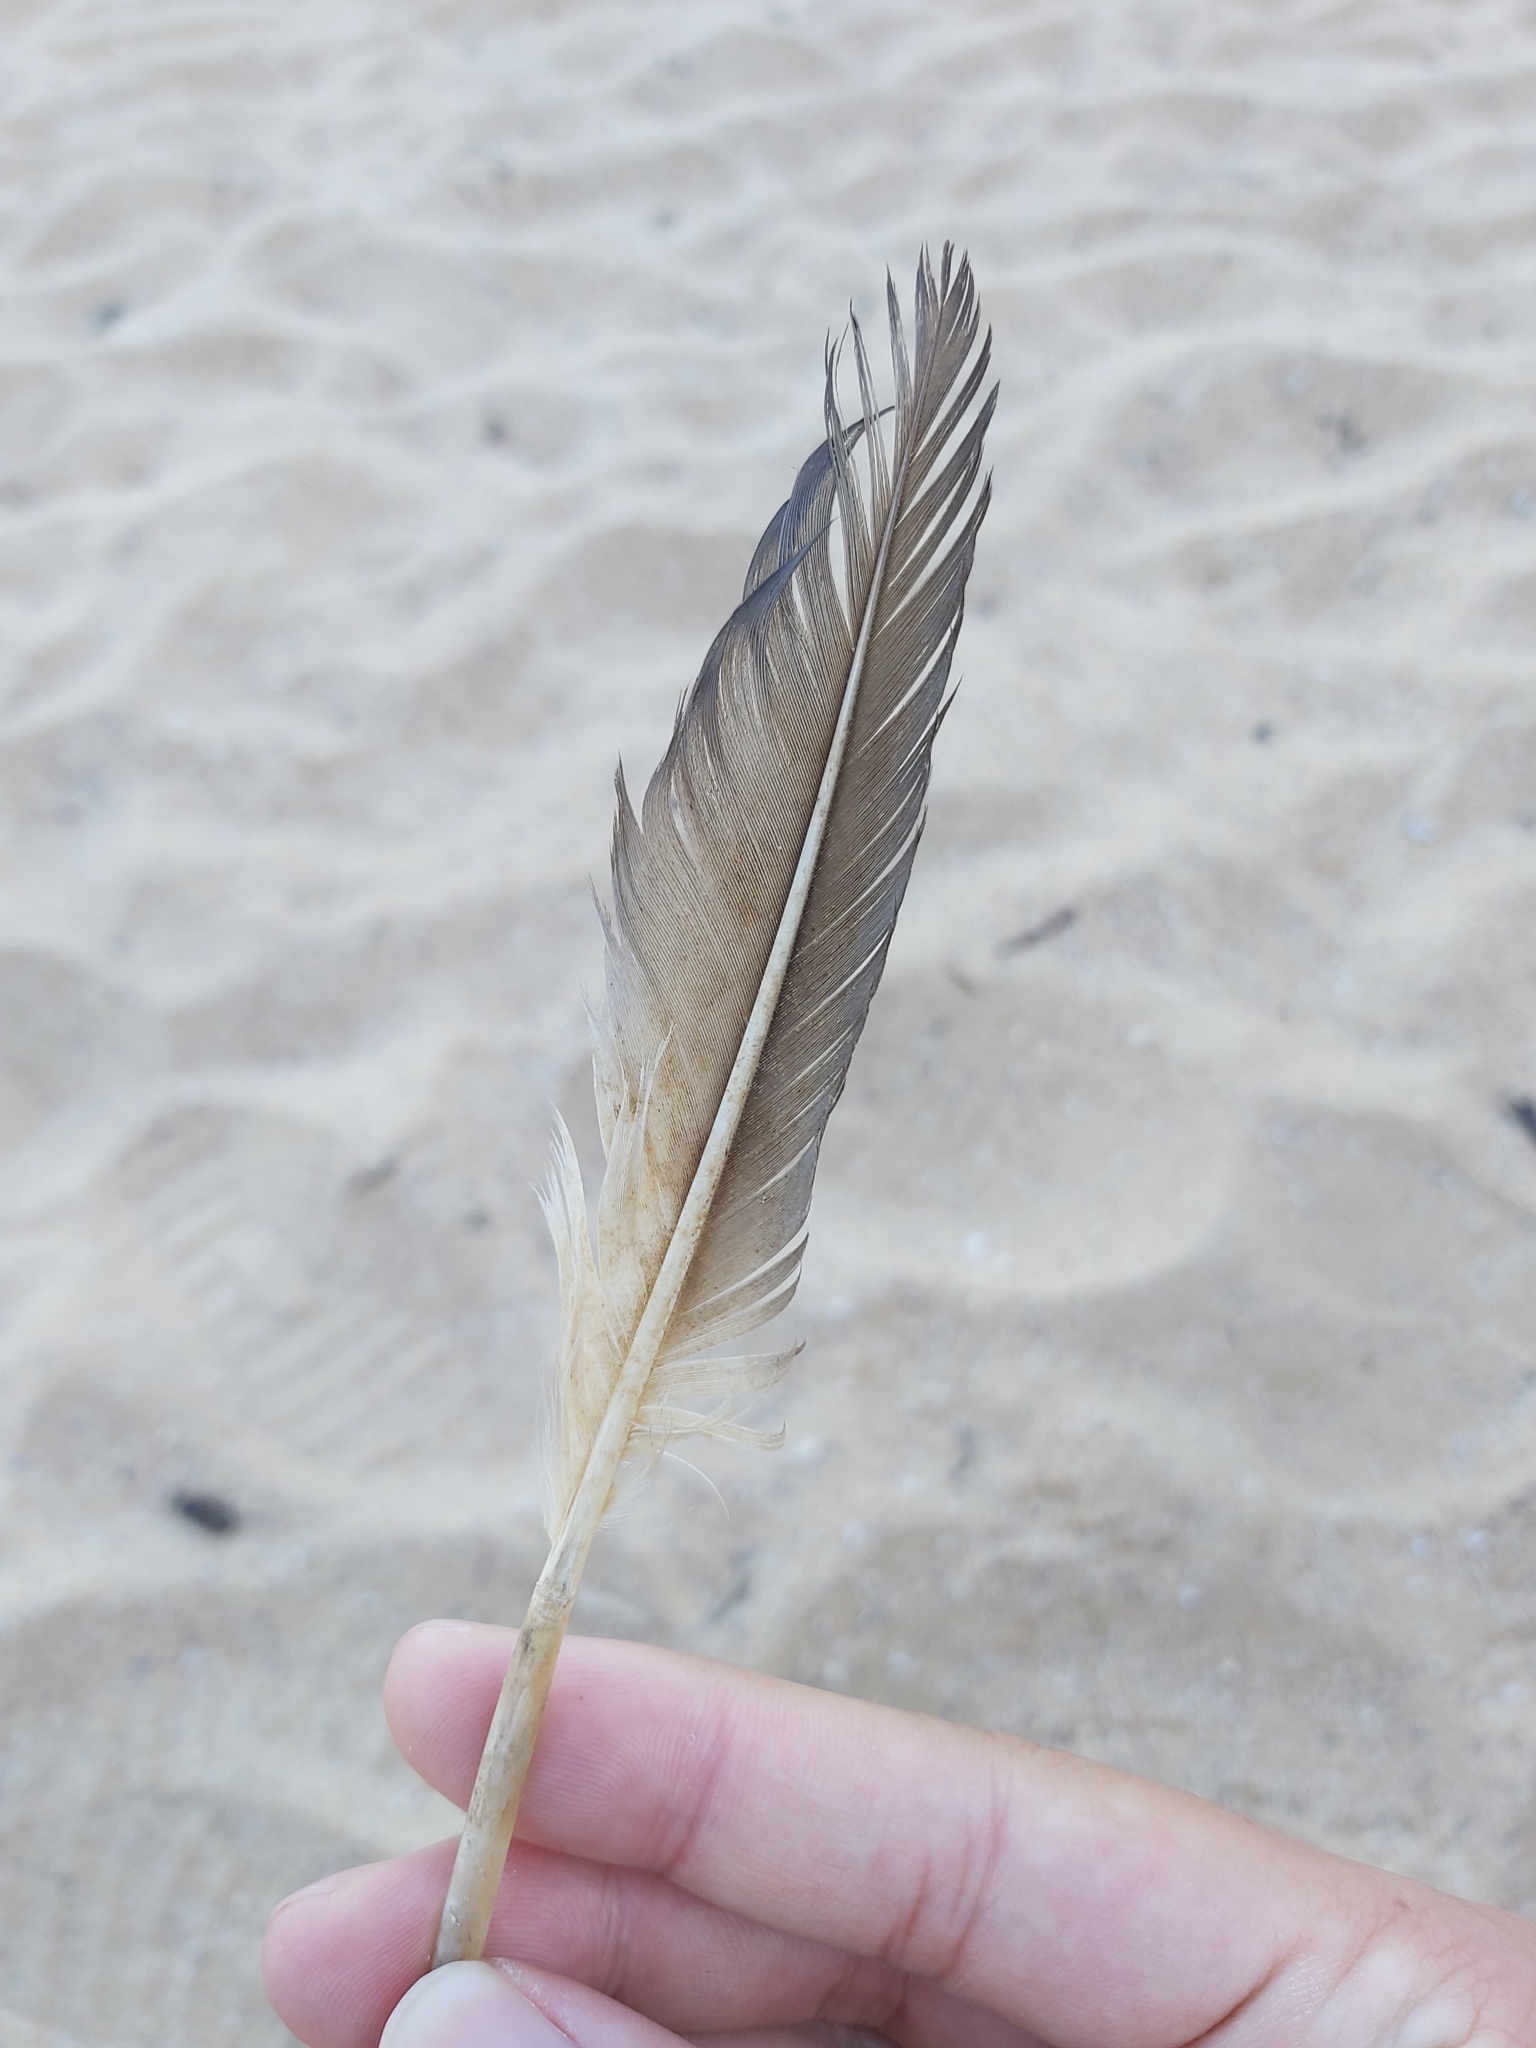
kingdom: Animalia
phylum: Chordata
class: Aves
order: Suliformes
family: Sulidae
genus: Morus
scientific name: Morus serrator
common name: Australasian gannet
